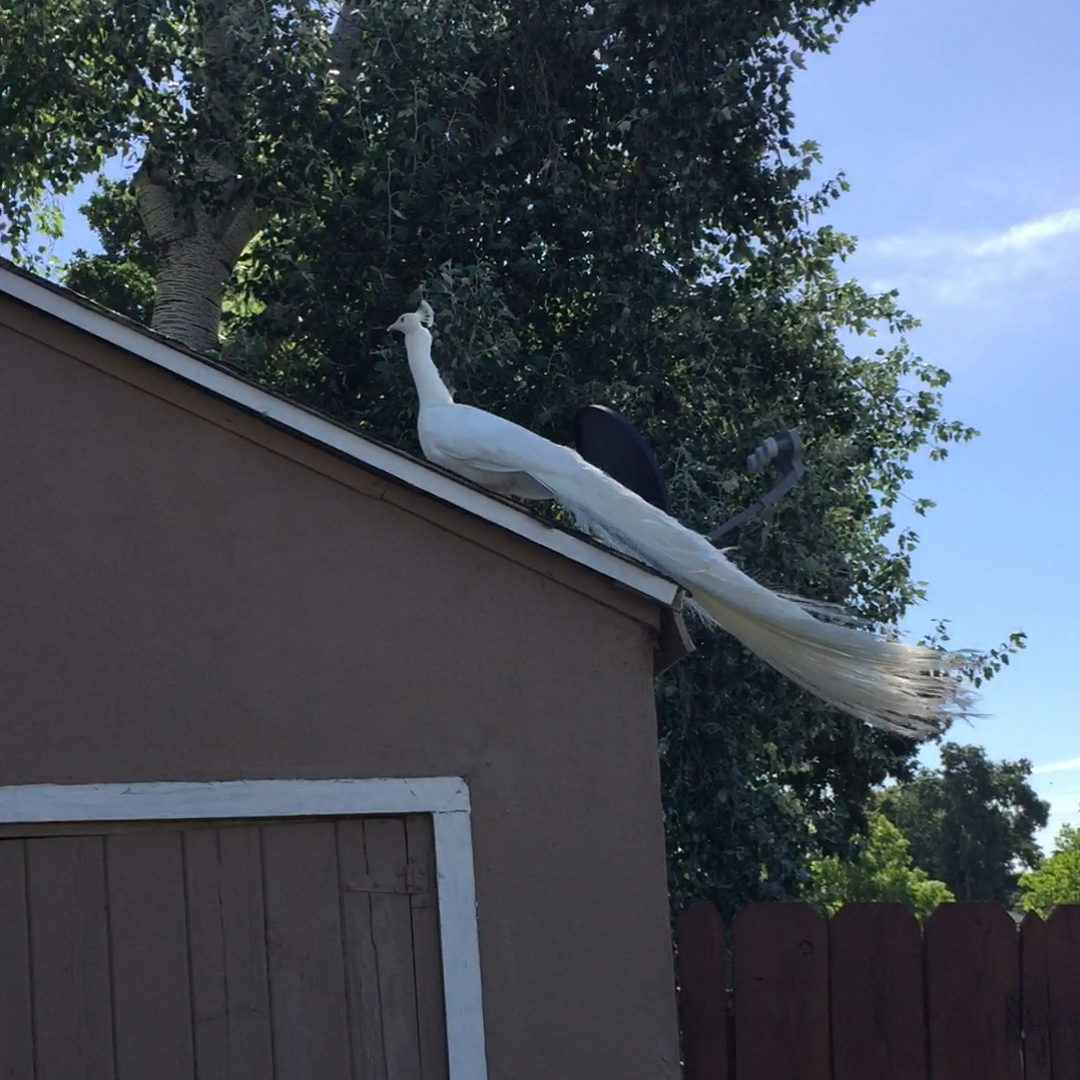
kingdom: Animalia
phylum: Chordata
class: Aves
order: Galliformes
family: Phasianidae
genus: Pavo
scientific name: Pavo cristatus
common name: Indian peafowl
